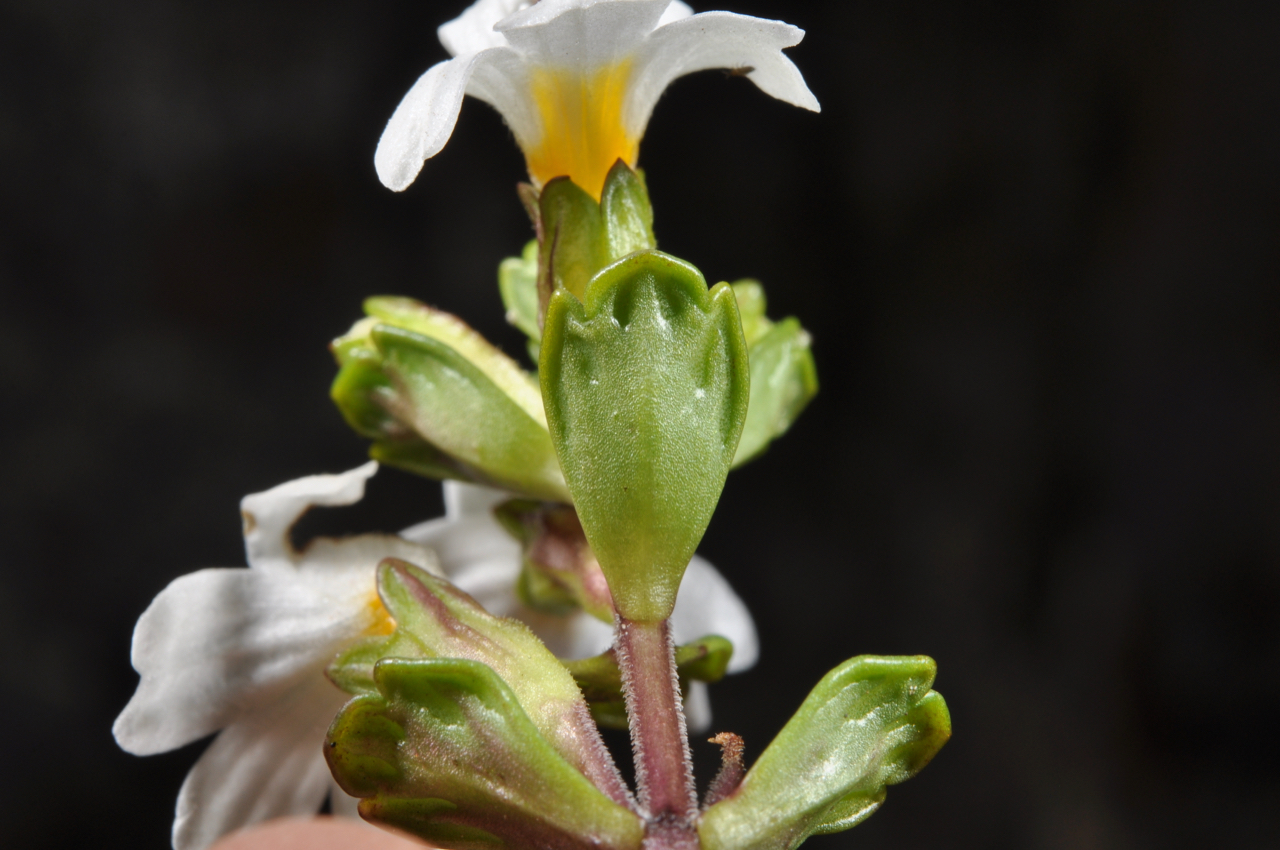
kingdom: Plantae
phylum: Tracheophyta
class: Magnoliopsida
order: Lamiales
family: Orobanchaceae
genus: Euphrasia
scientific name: Euphrasia laingii
